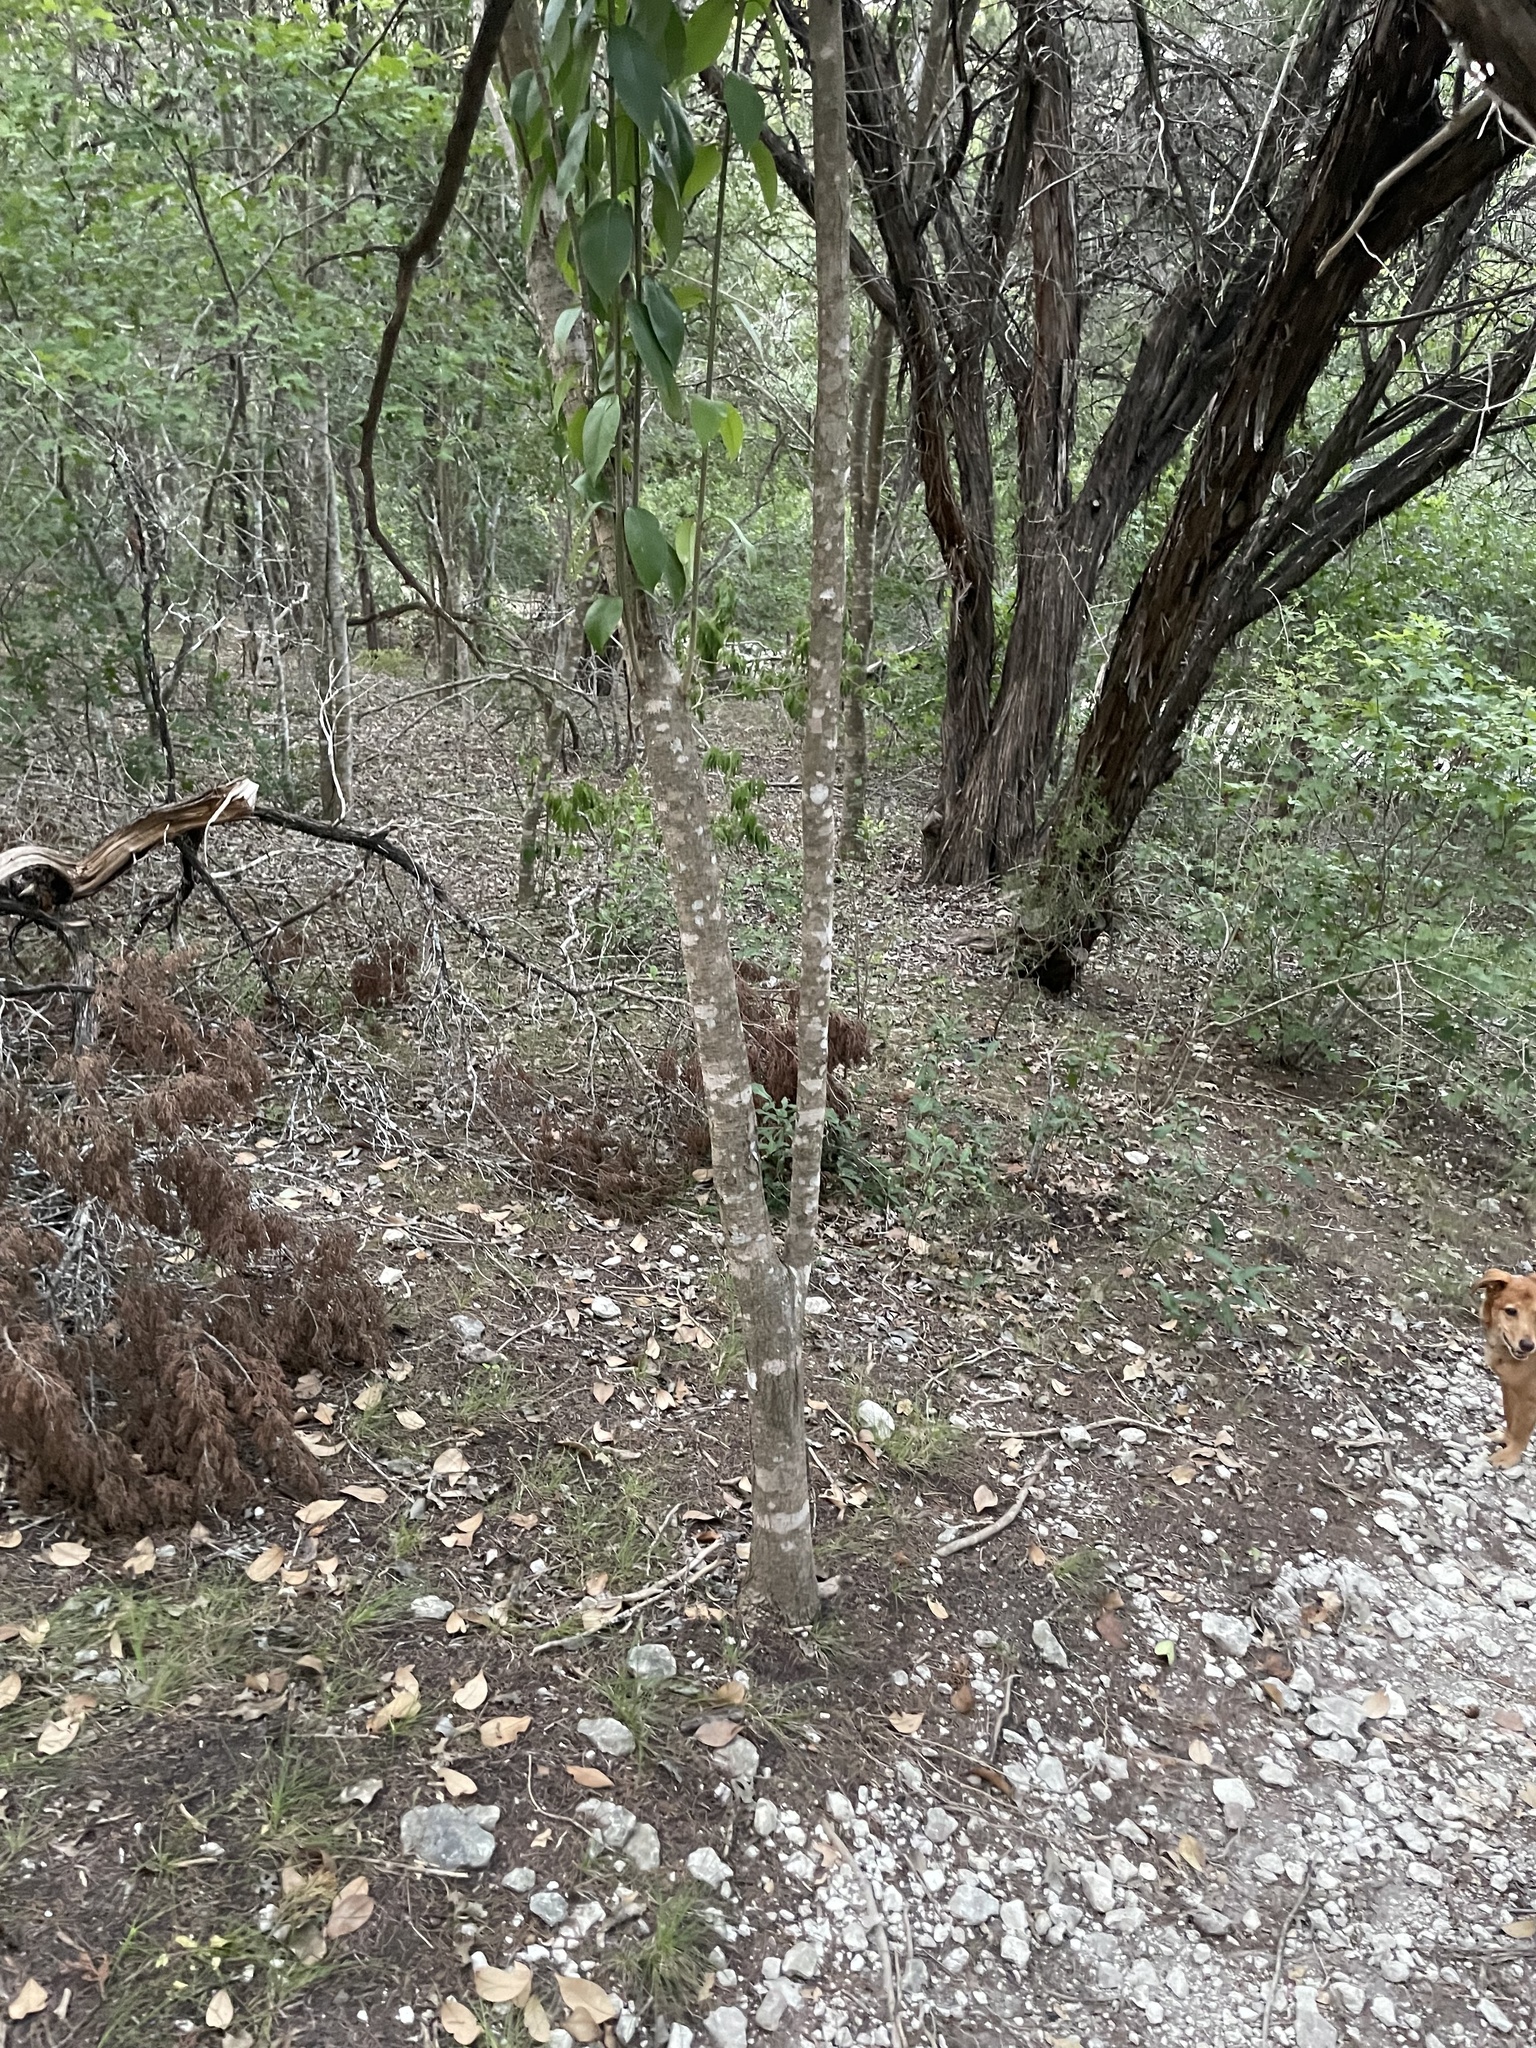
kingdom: Plantae
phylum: Tracheophyta
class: Magnoliopsida
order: Lamiales
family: Oleaceae
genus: Ligustrum
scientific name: Ligustrum lucidum
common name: Glossy privet
